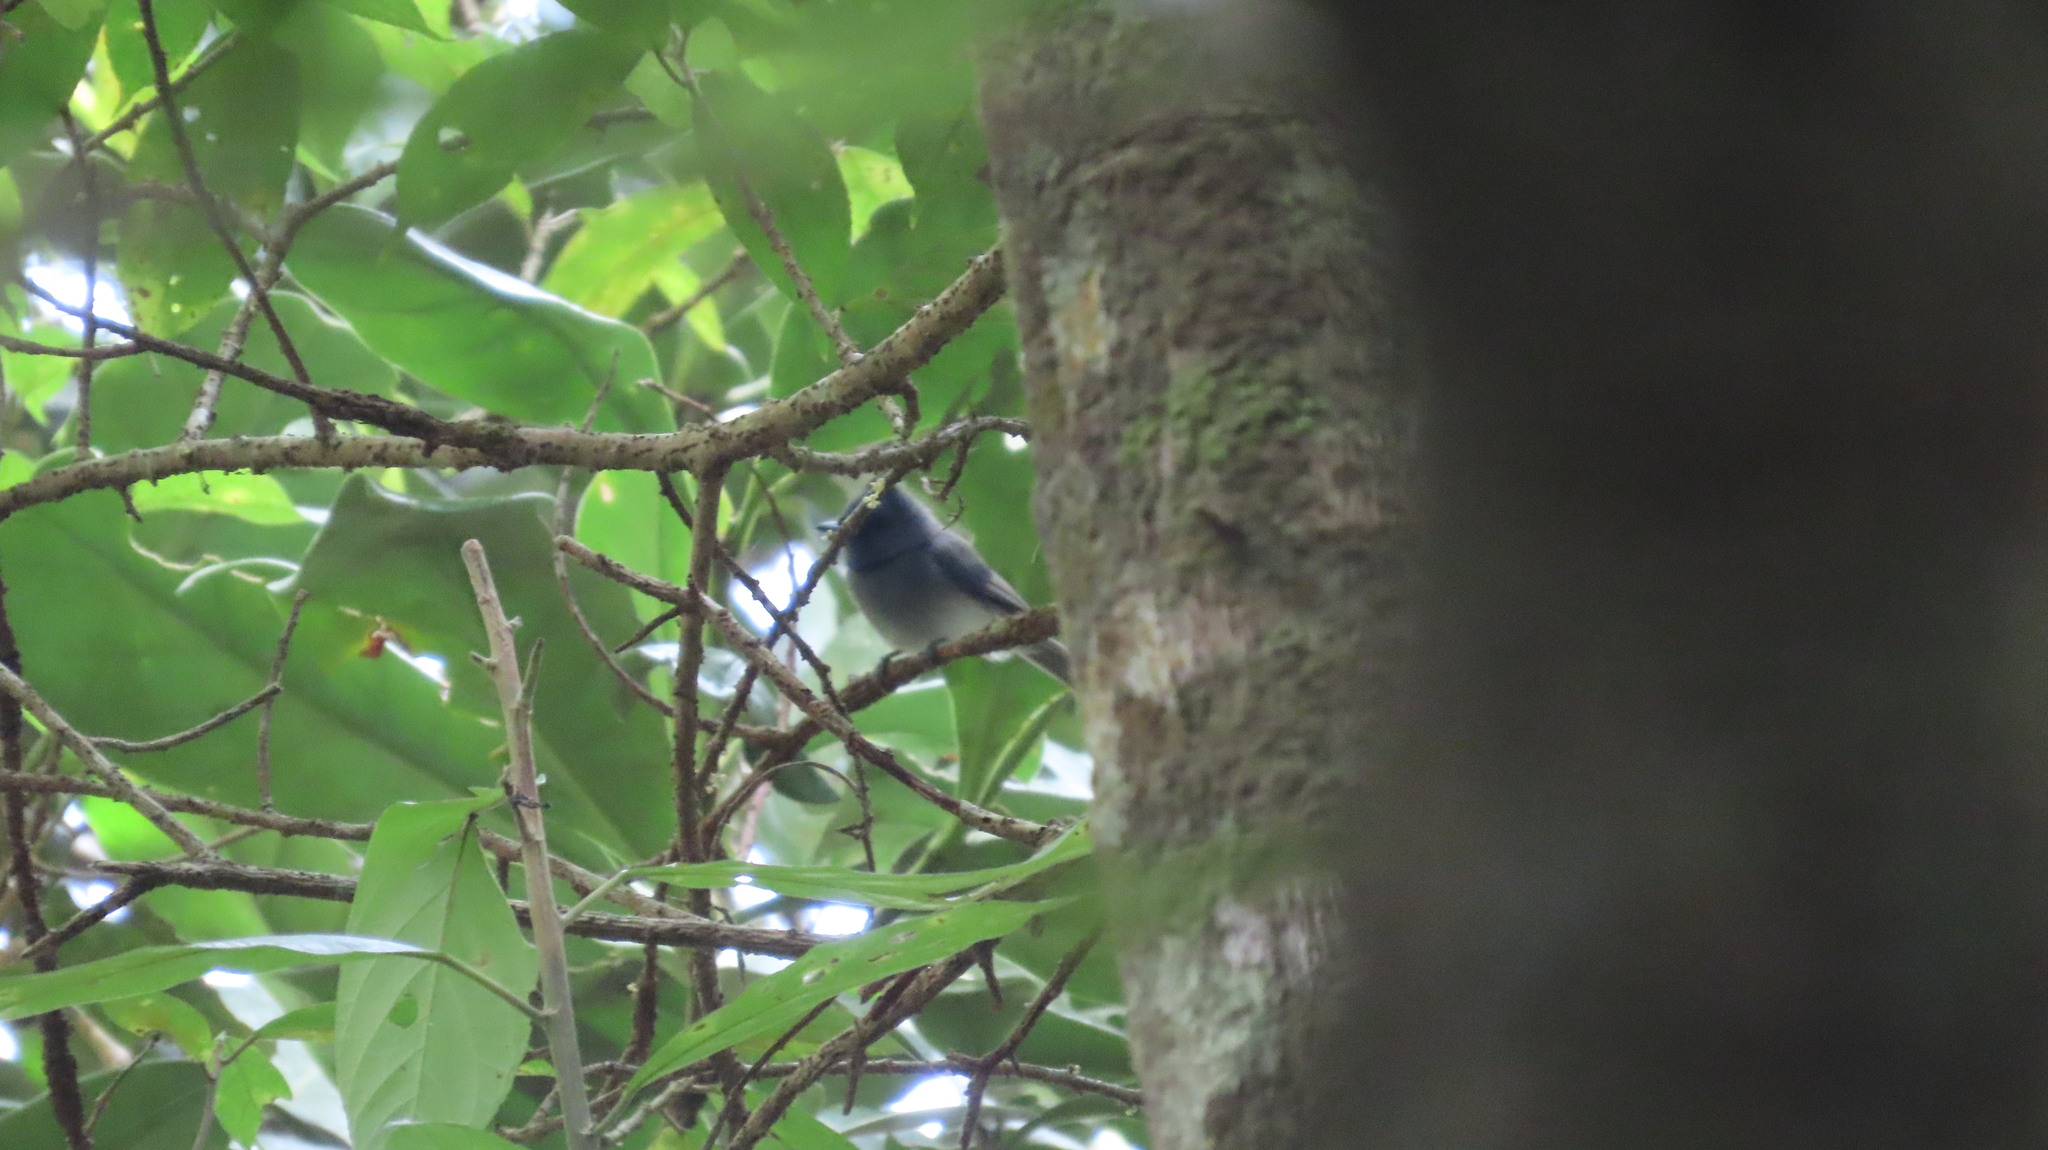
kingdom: Animalia
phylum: Chordata
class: Aves
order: Passeriformes
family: Monarchidae
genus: Hypothymis
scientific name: Hypothymis azurea
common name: Black-naped monarch
